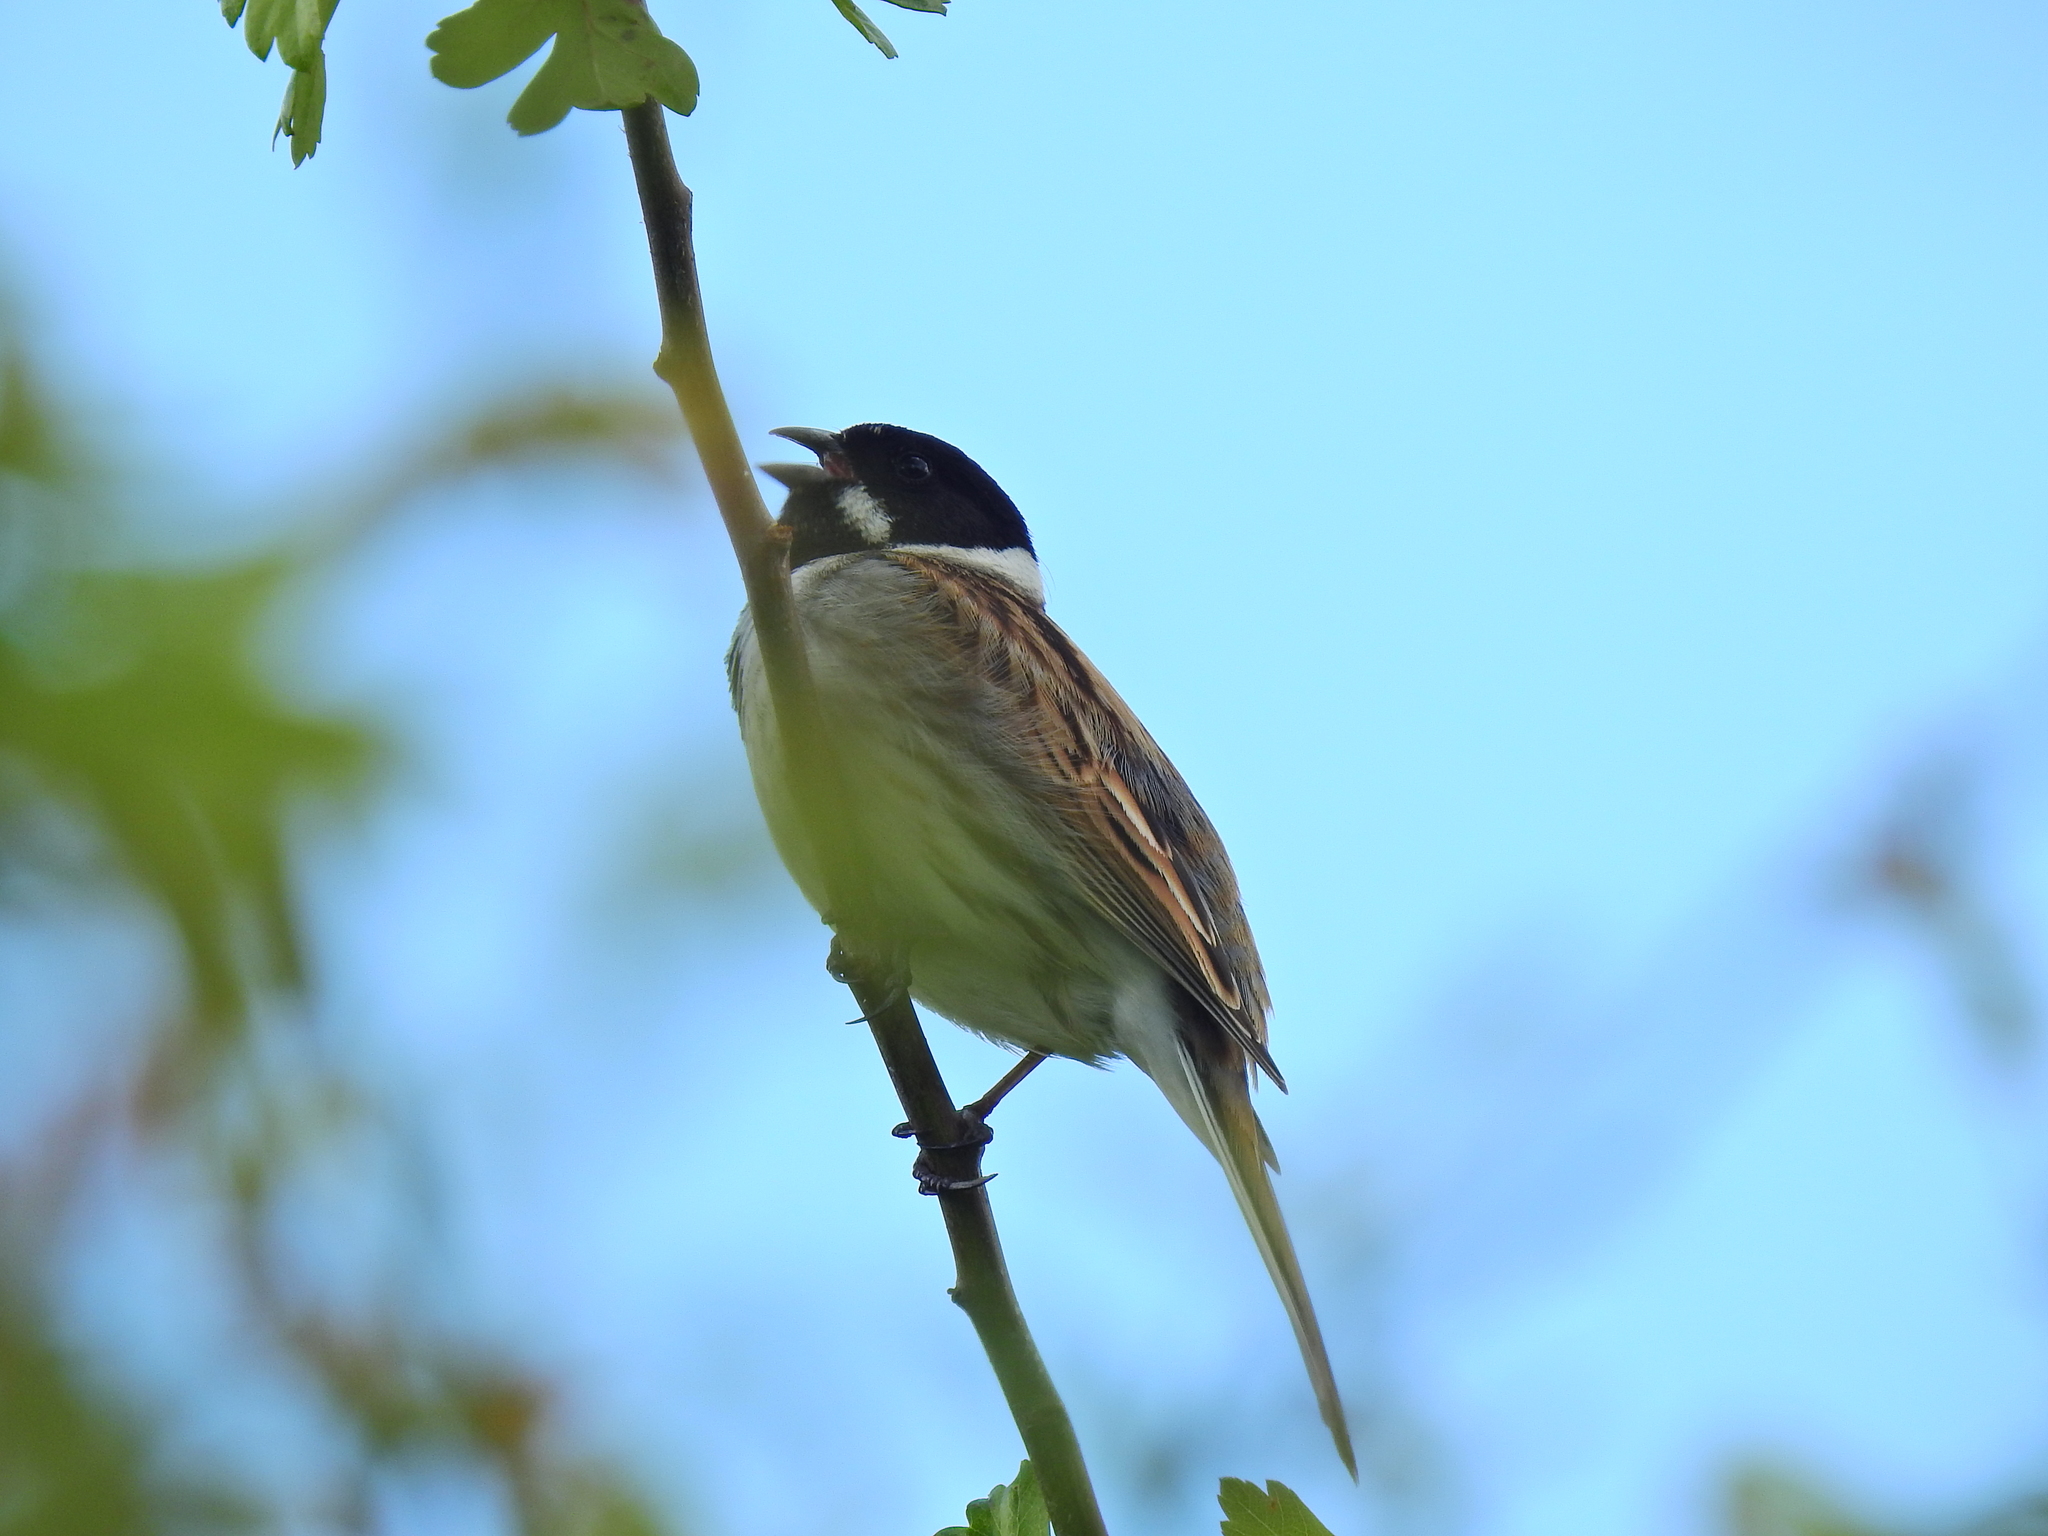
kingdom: Animalia
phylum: Chordata
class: Aves
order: Passeriformes
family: Emberizidae
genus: Emberiza
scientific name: Emberiza schoeniclus
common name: Reed bunting
